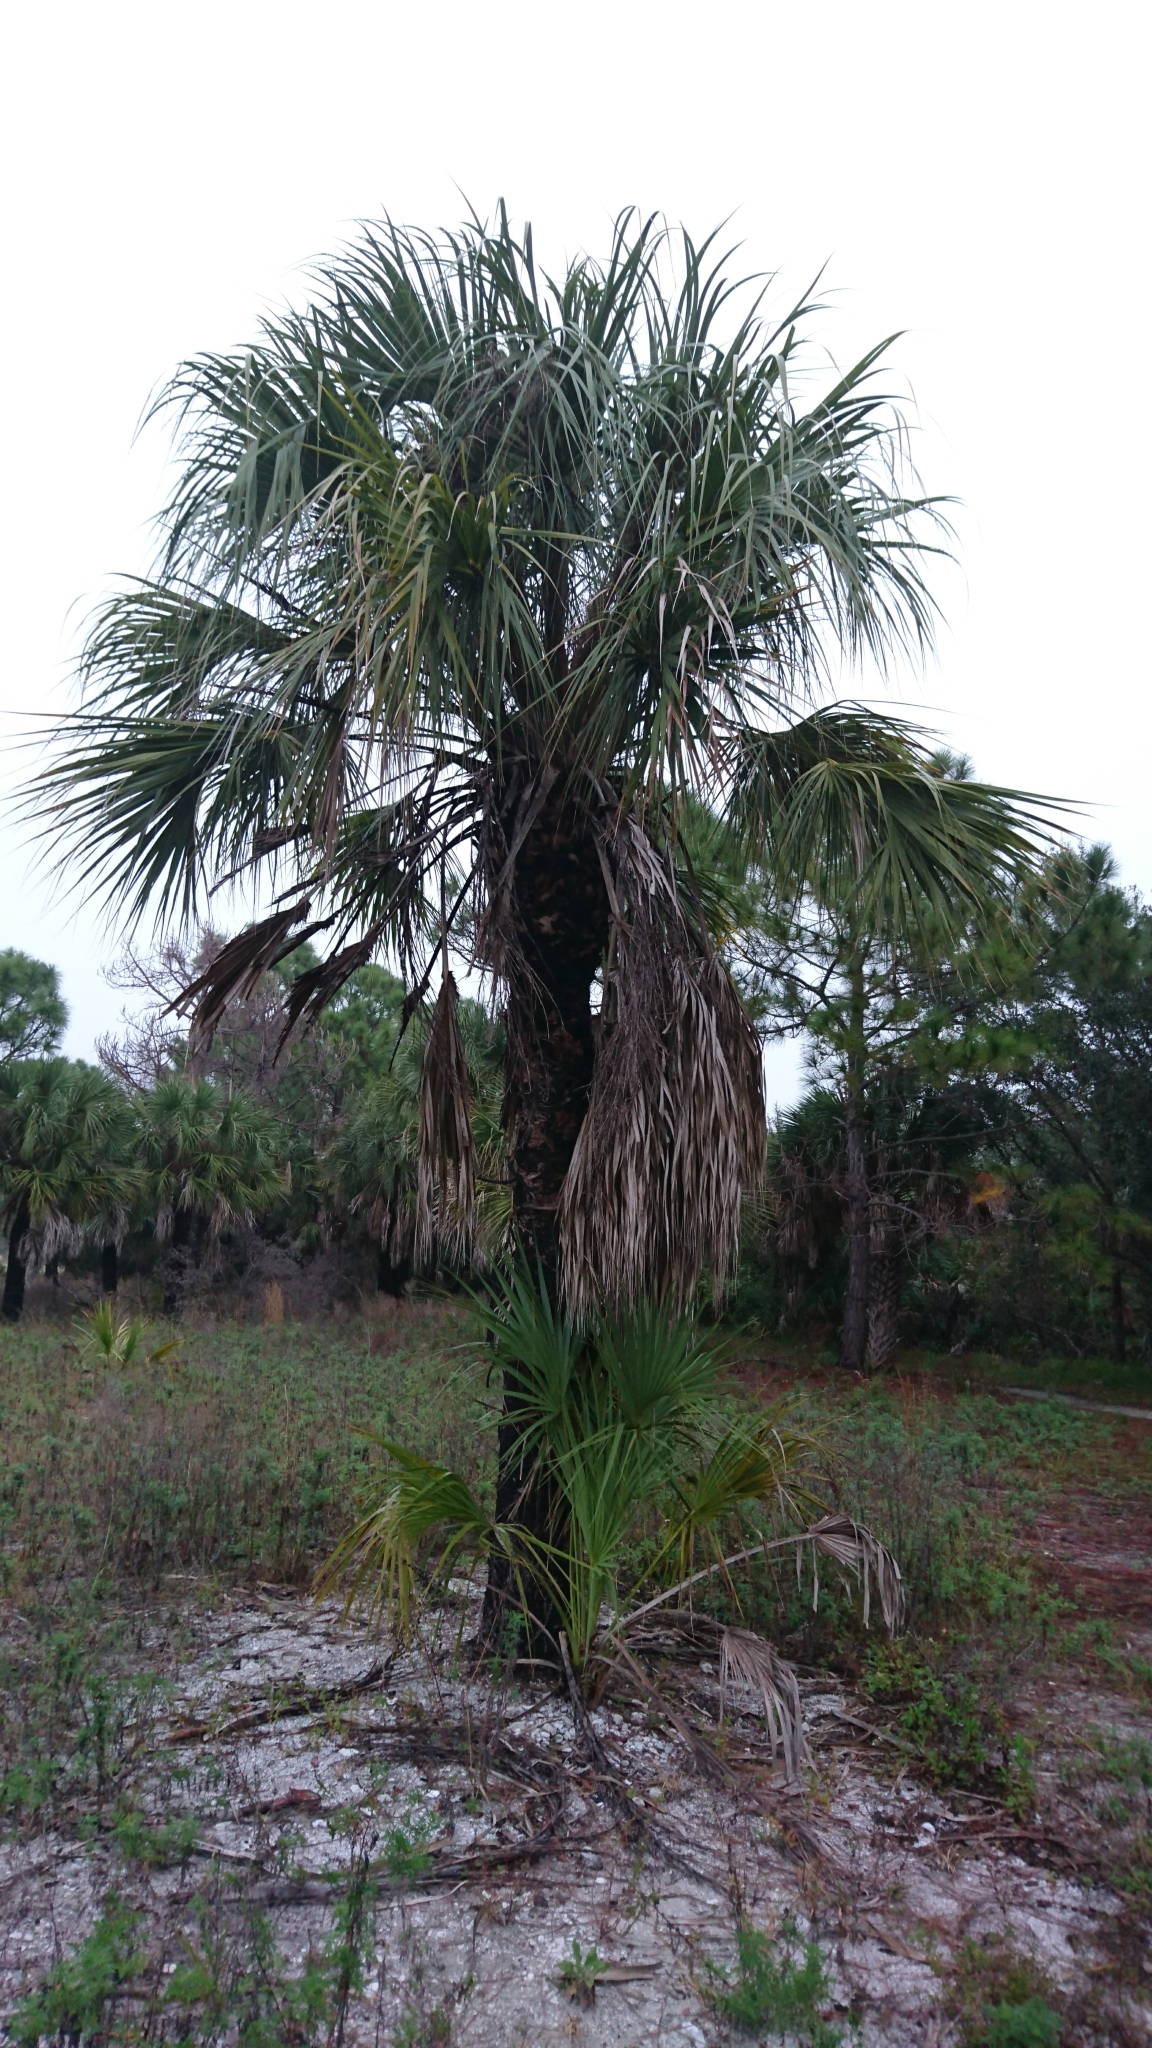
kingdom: Plantae
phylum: Tracheophyta
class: Liliopsida
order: Arecales
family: Arecaceae
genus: Sabal
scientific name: Sabal palmetto
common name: Blue palmetto
